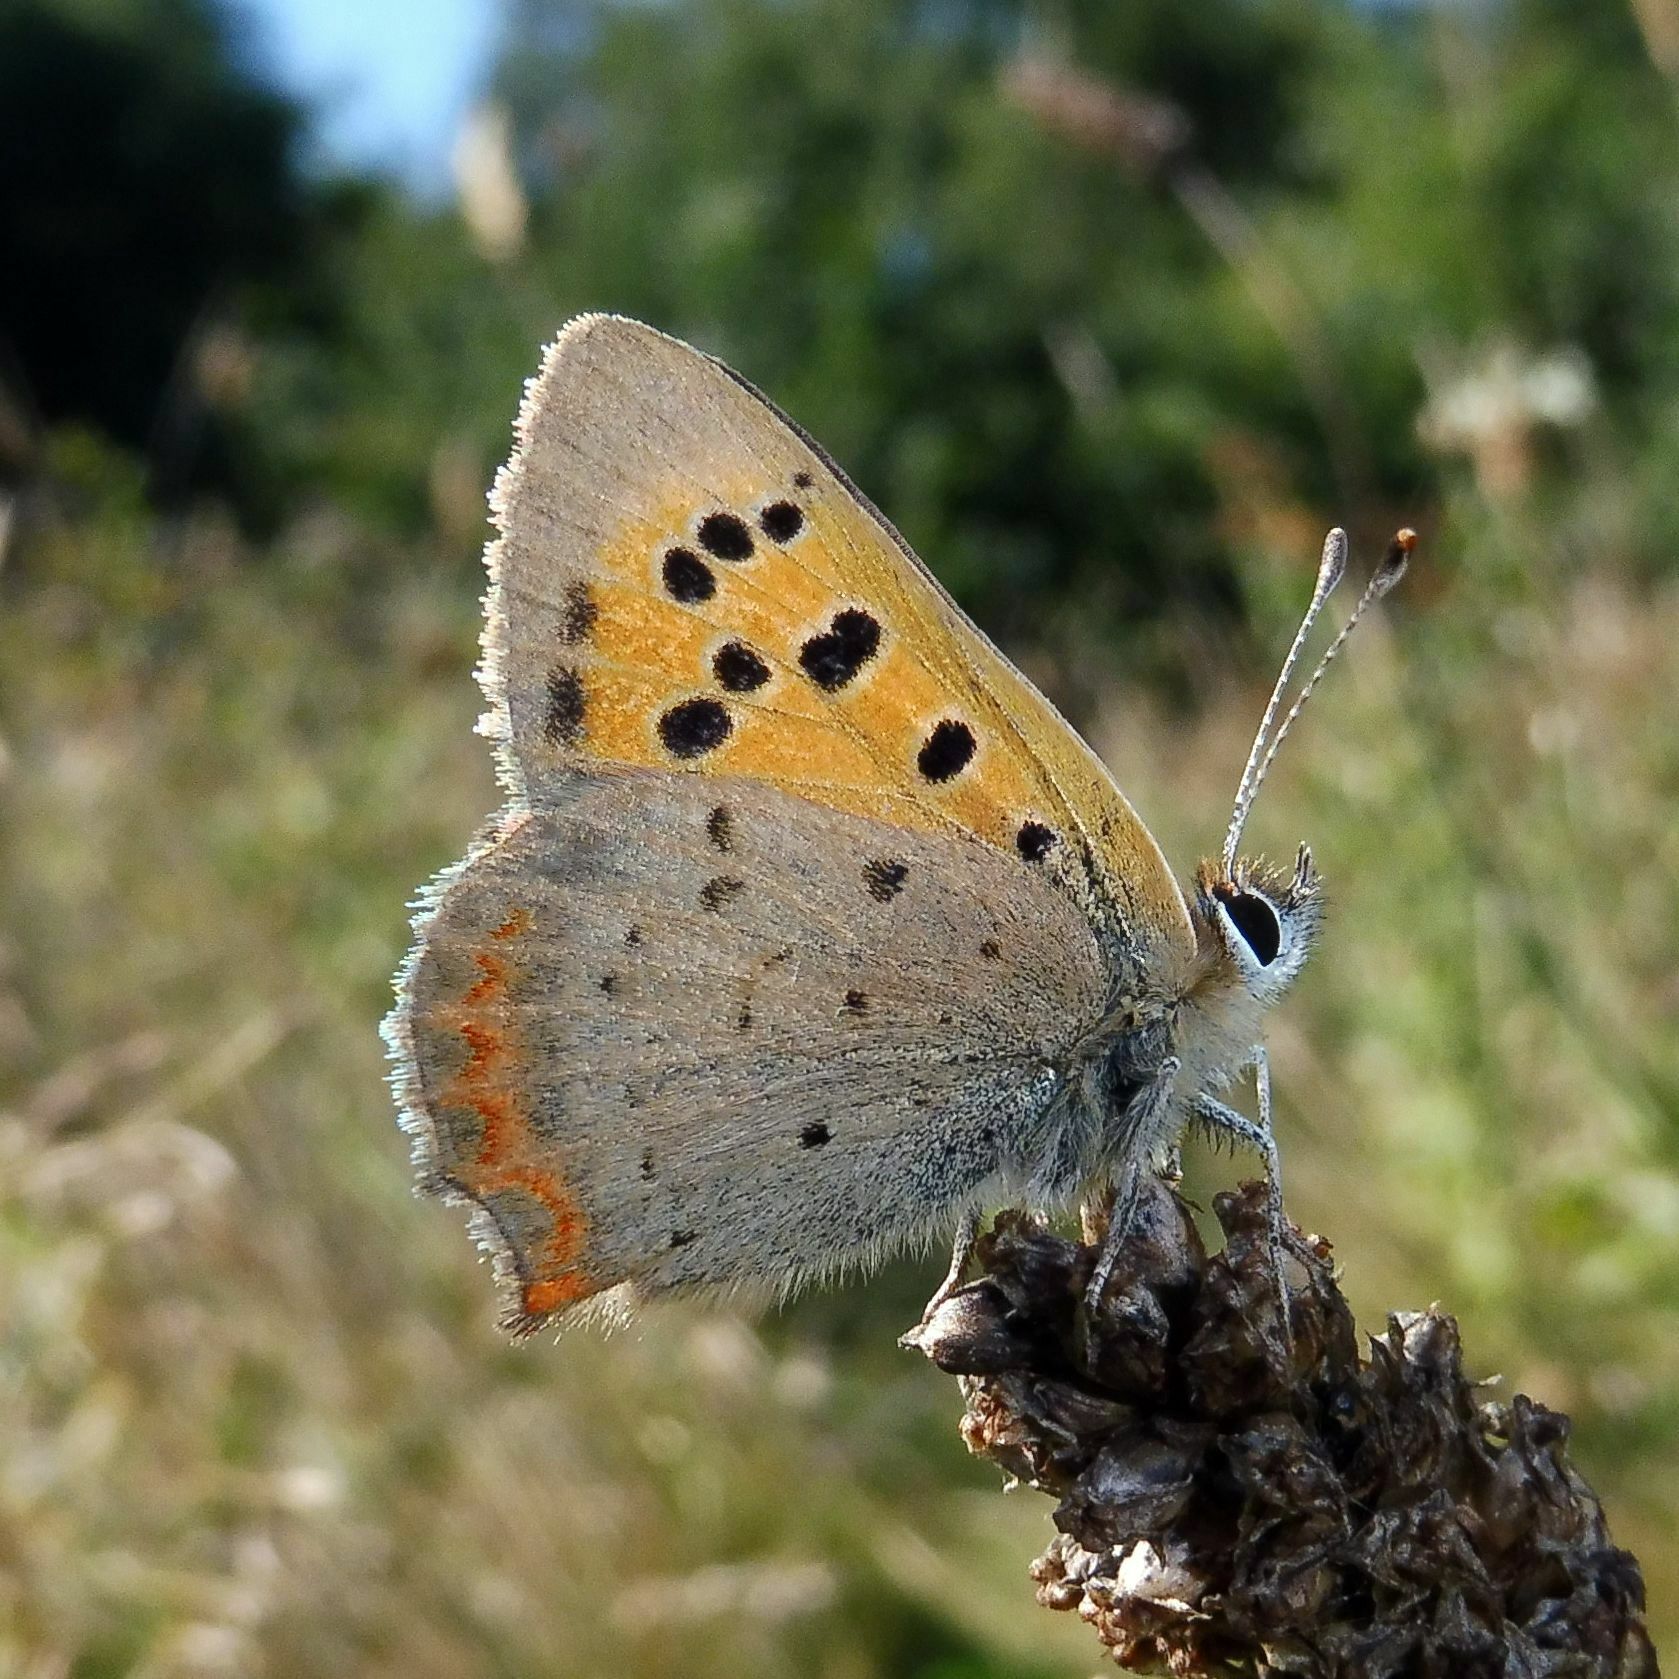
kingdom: Animalia
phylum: Arthropoda
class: Insecta
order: Lepidoptera
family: Lycaenidae
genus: Lycaena
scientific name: Lycaena phlaeas
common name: Small copper
